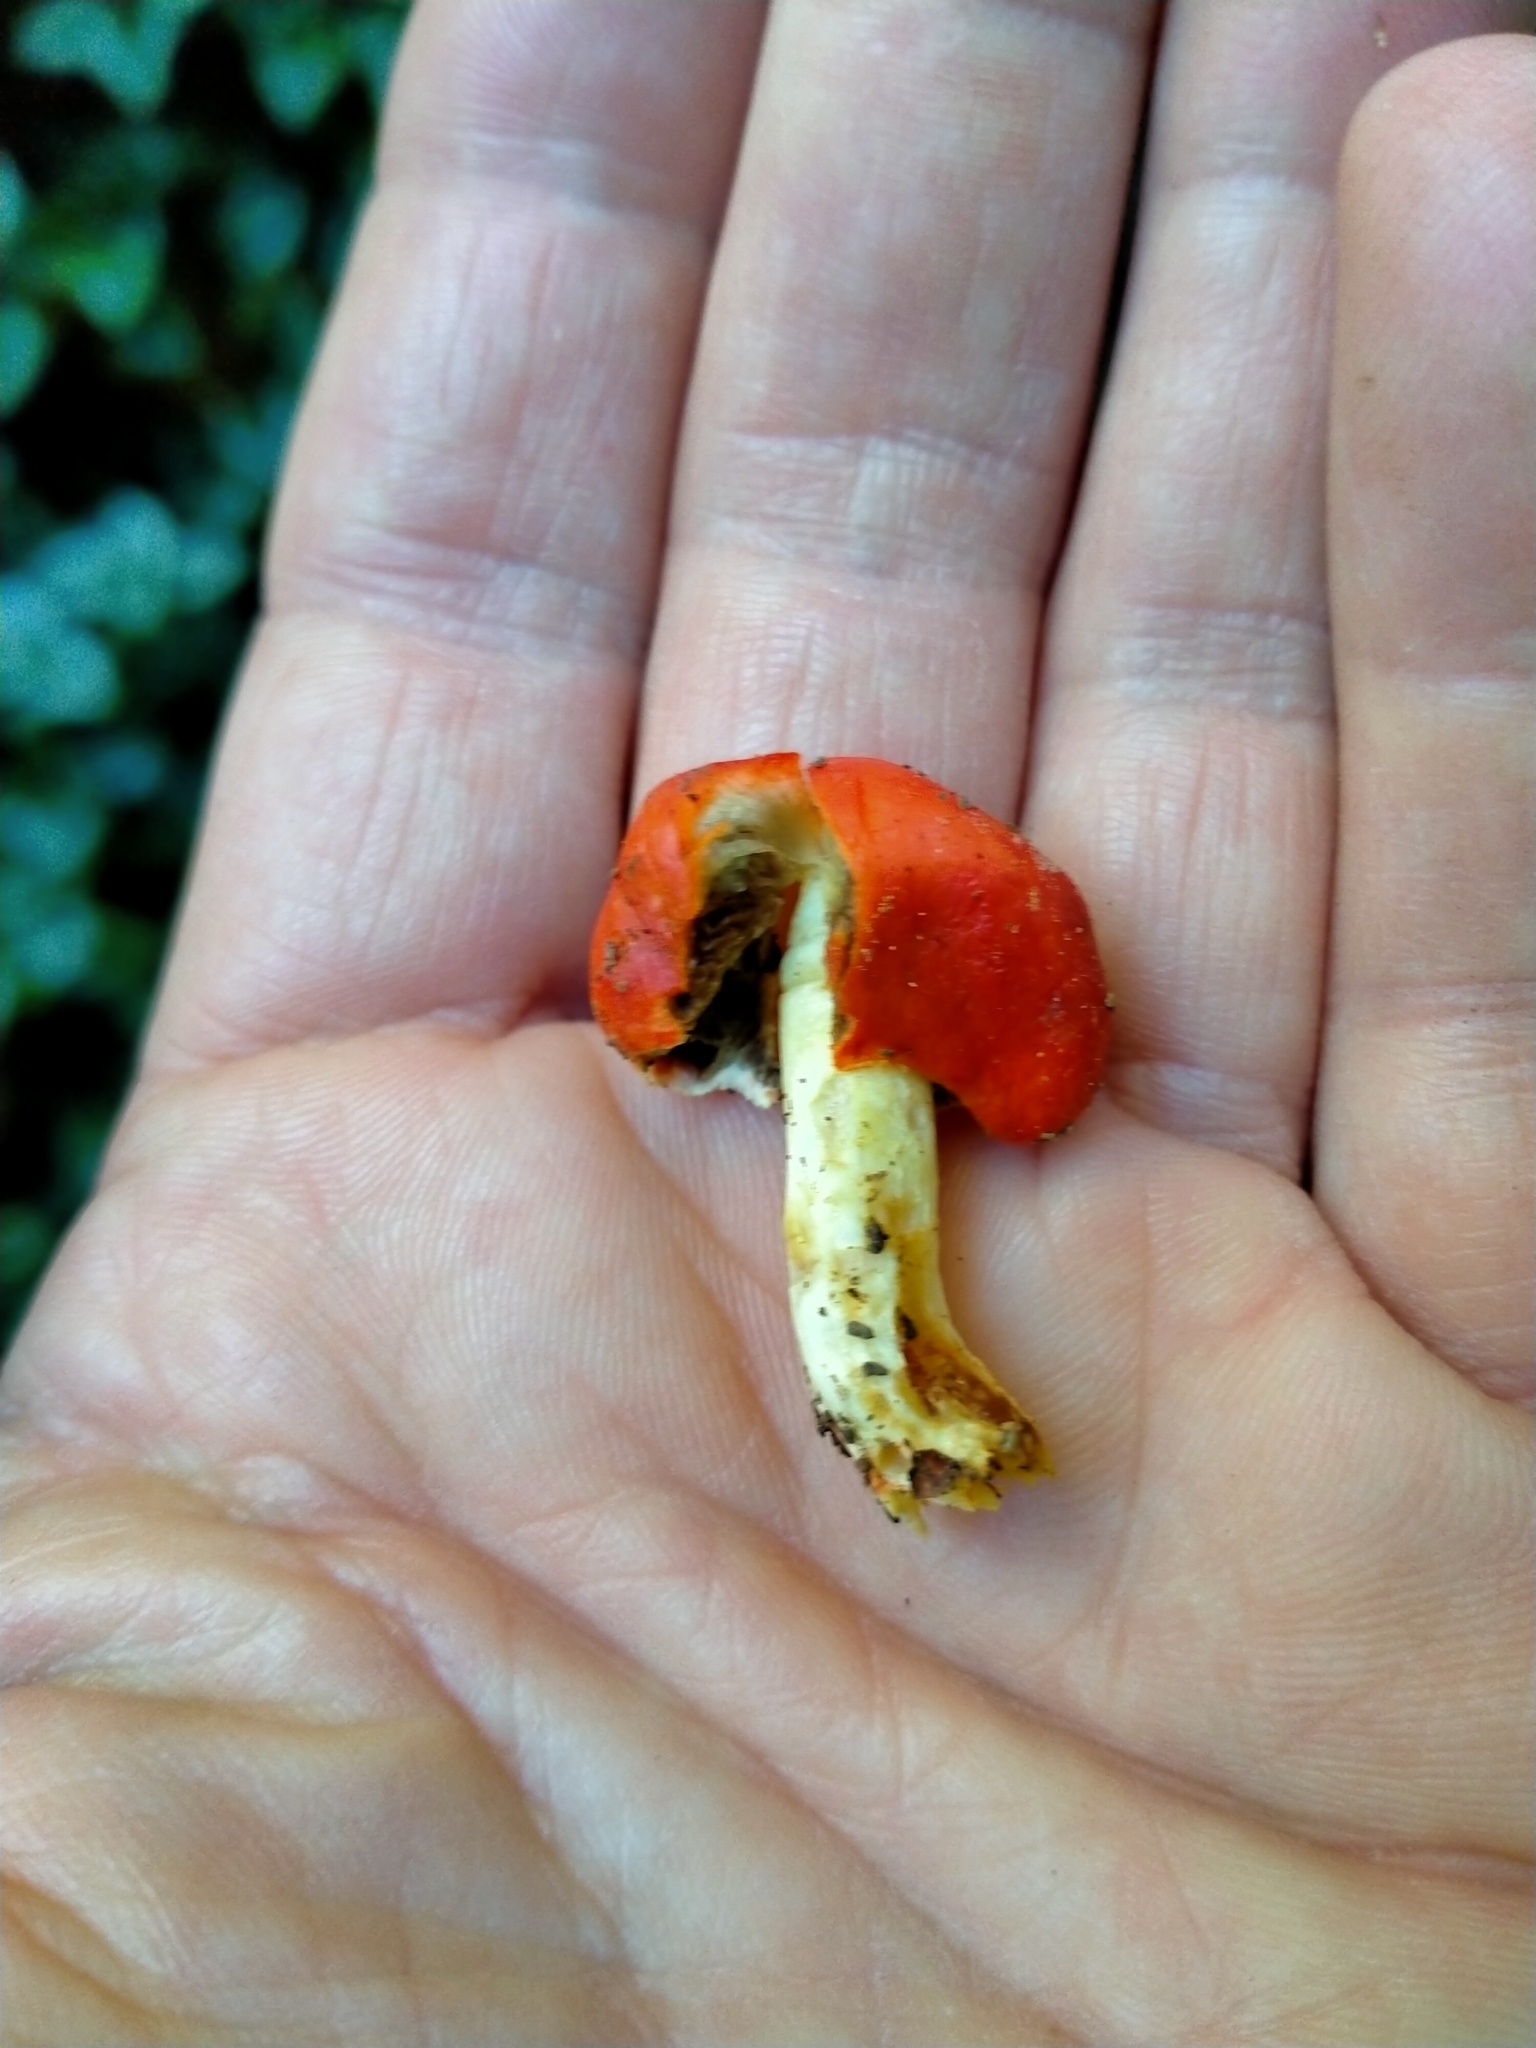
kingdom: Fungi
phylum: Basidiomycota
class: Agaricomycetes
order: Agaricales
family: Strophariaceae
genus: Leratiomyces
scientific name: Leratiomyces erythrocephalus
